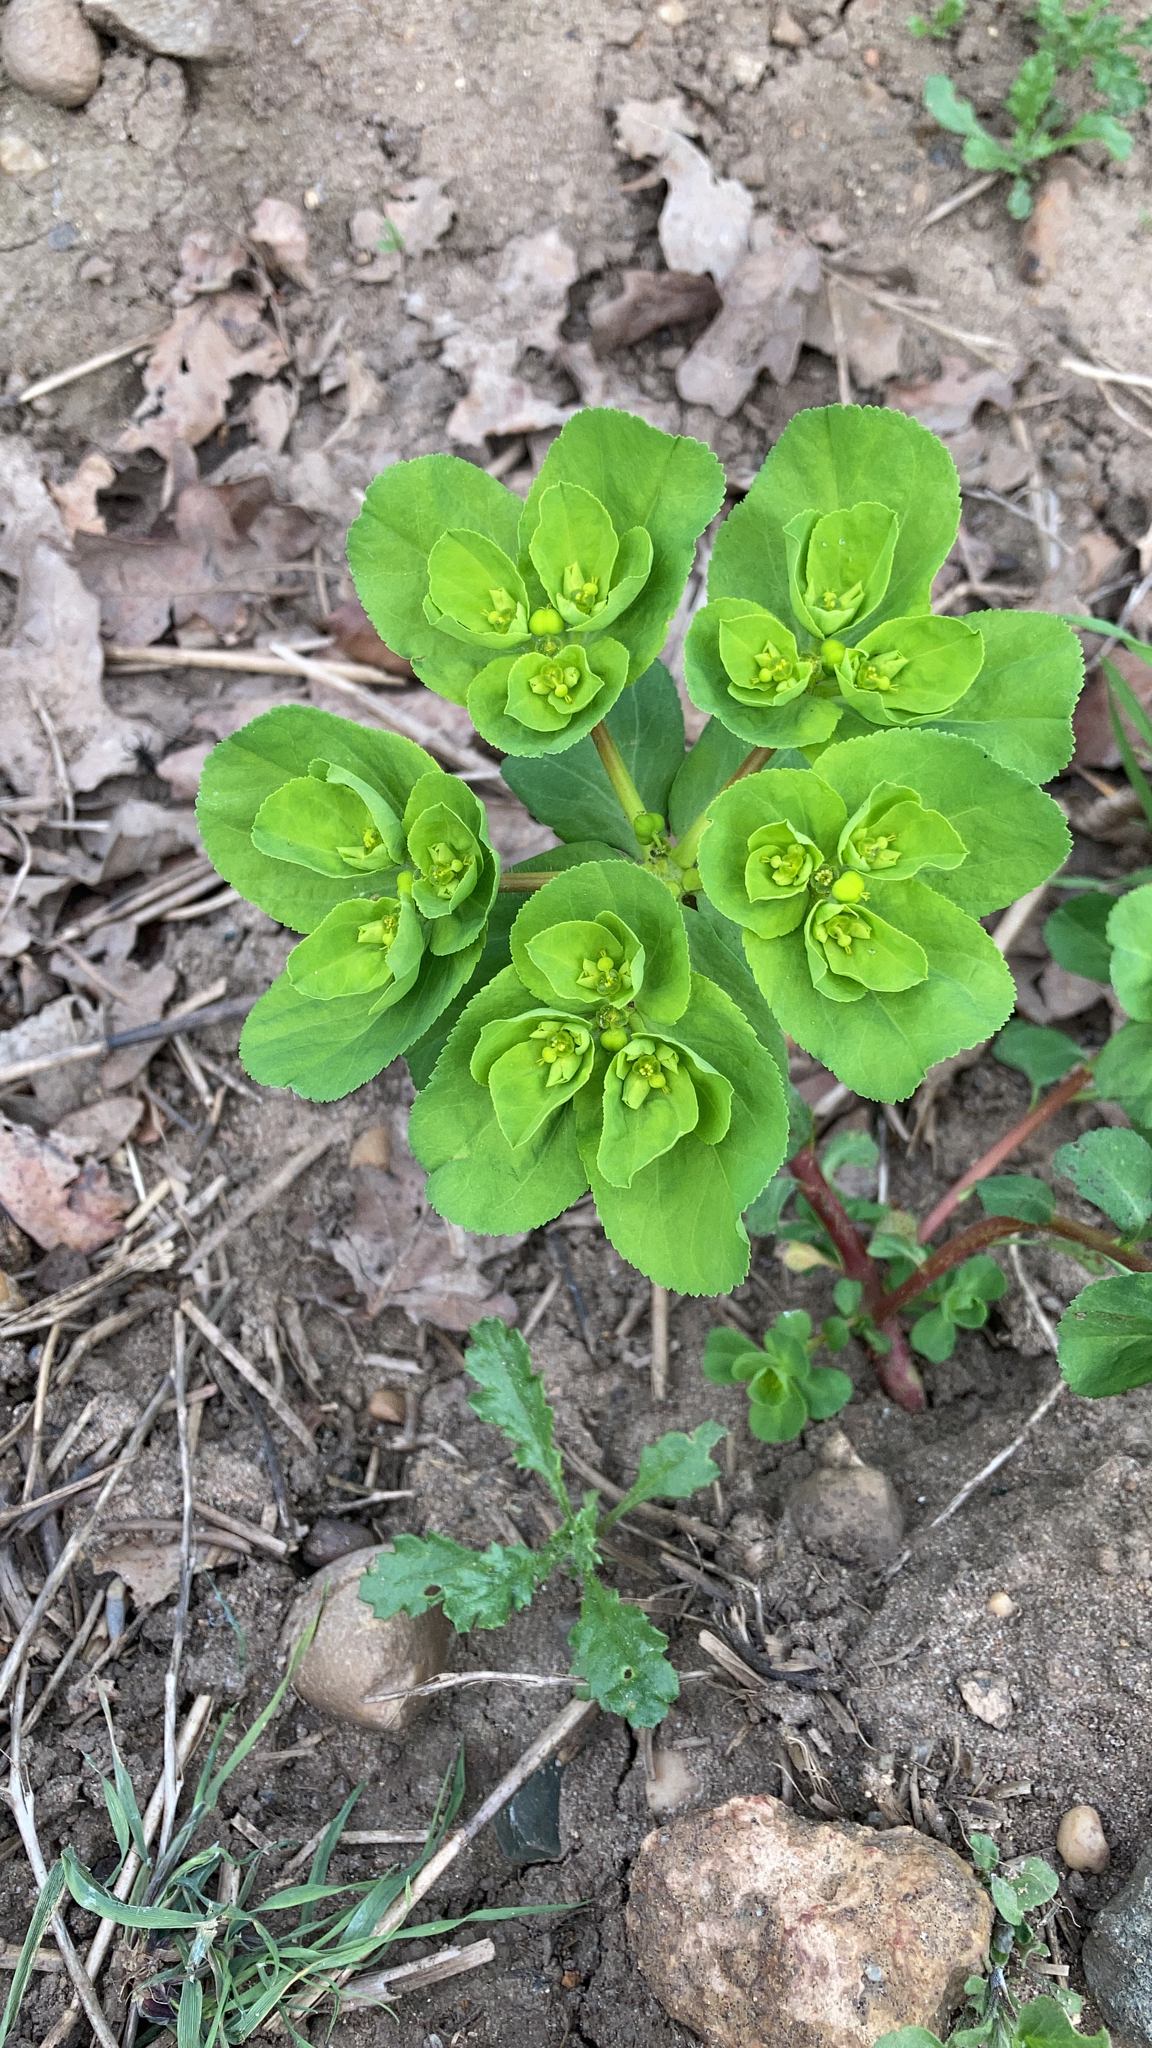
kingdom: Plantae
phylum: Tracheophyta
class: Magnoliopsida
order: Malpighiales
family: Euphorbiaceae
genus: Euphorbia
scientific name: Euphorbia helioscopia
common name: Sun spurge
